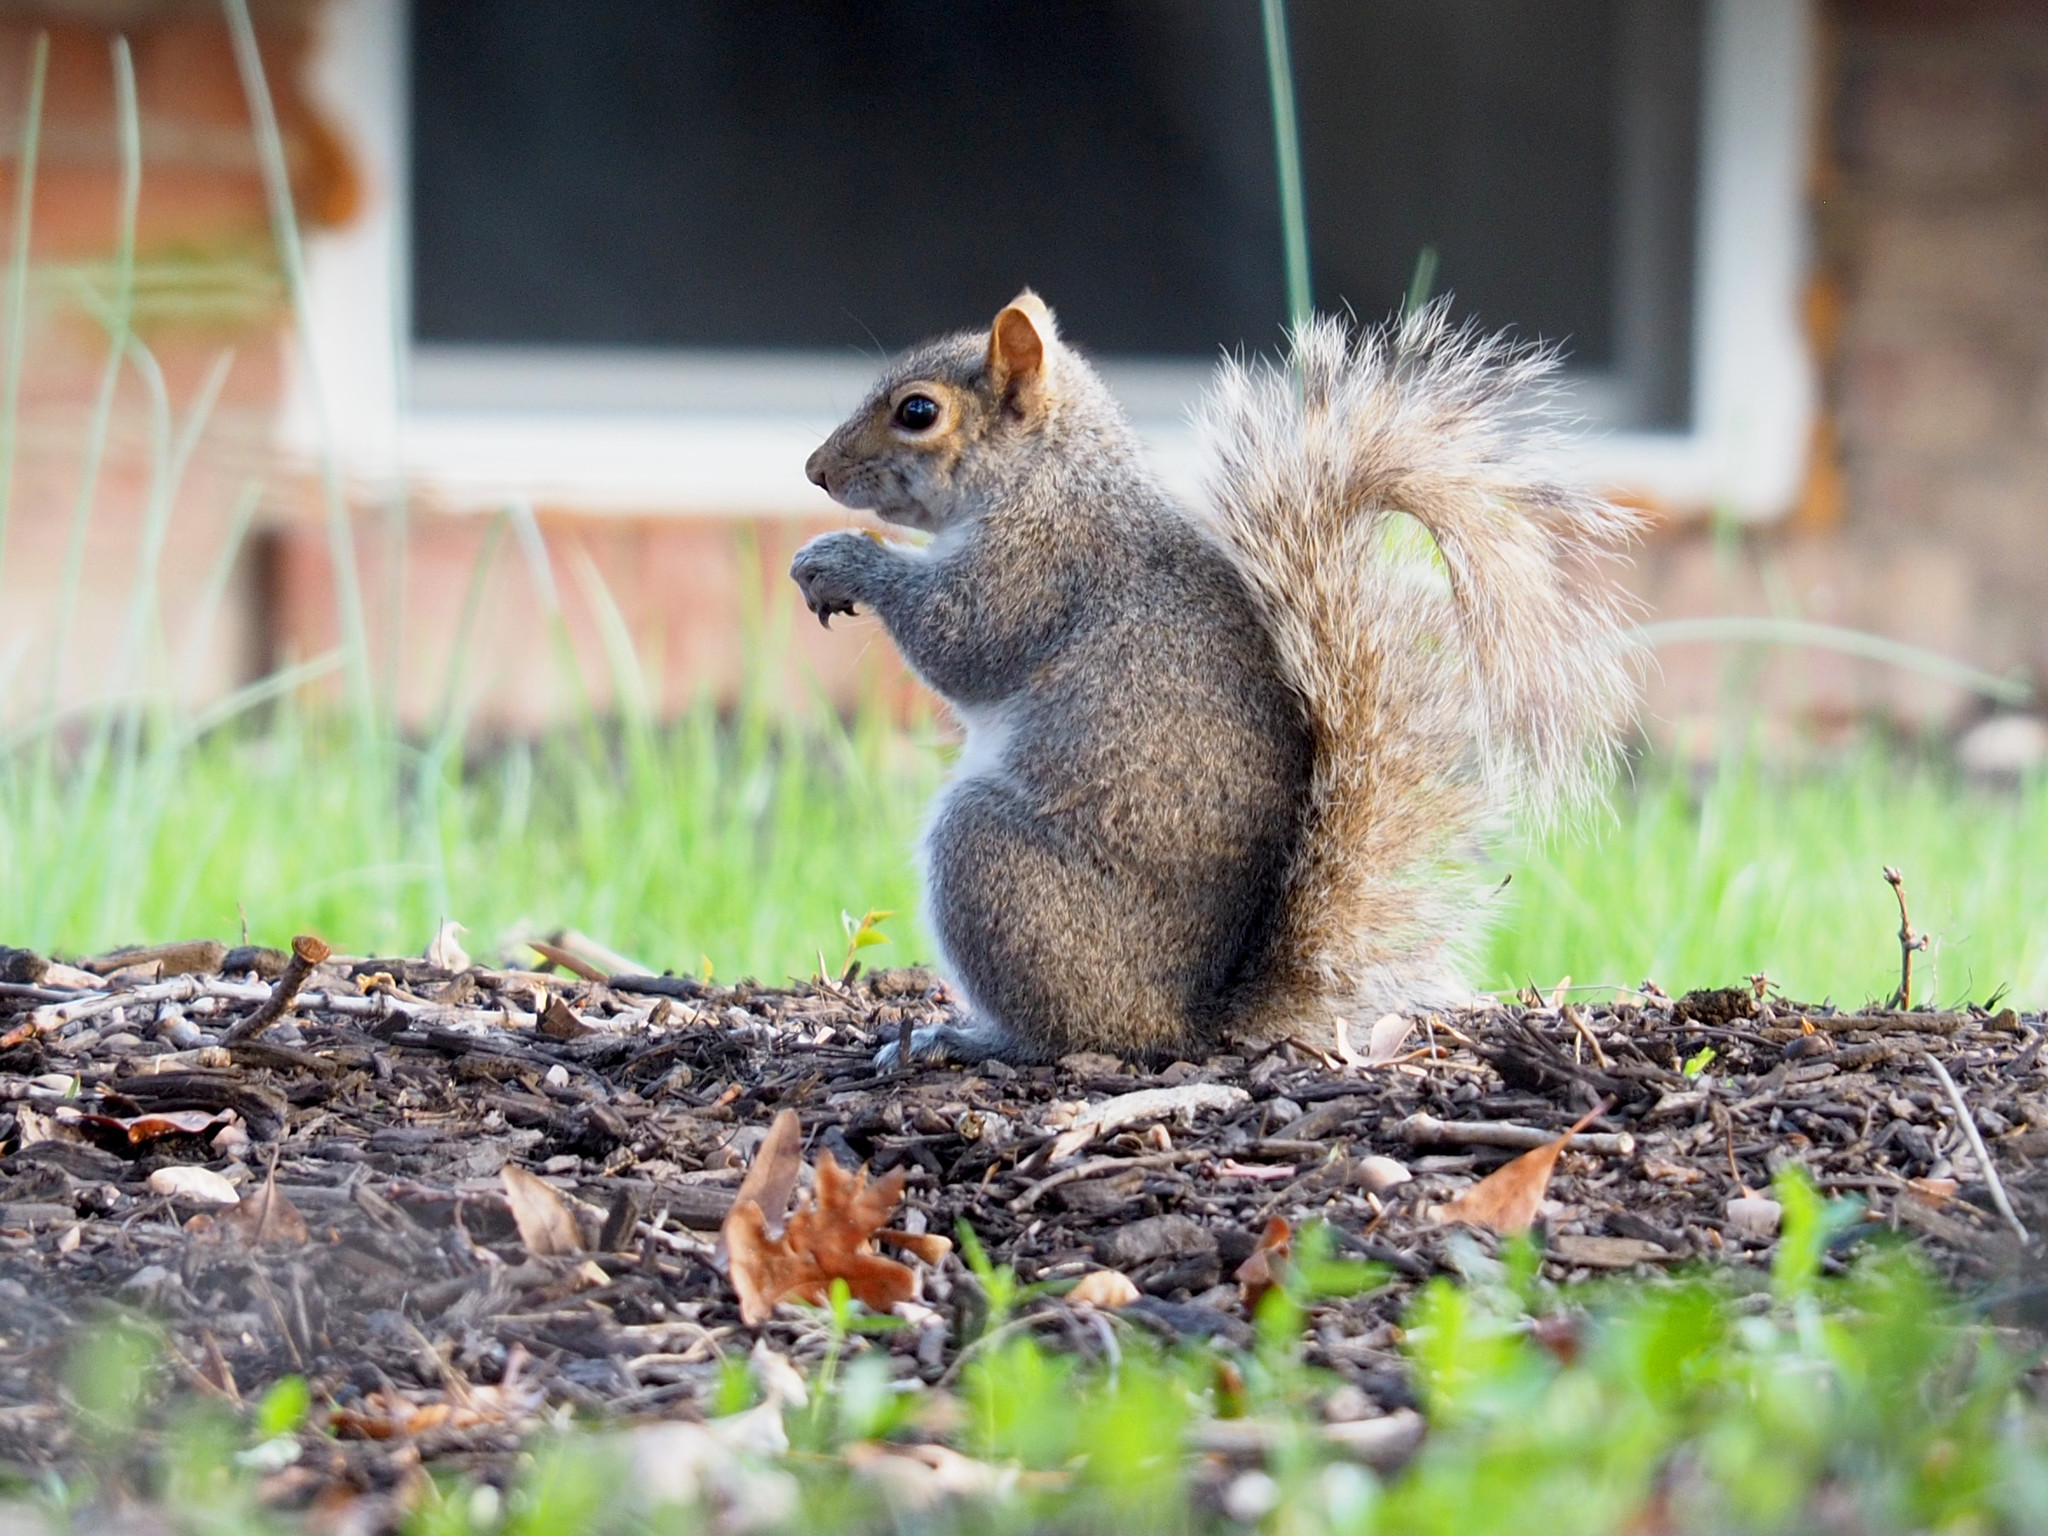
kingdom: Animalia
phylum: Chordata
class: Mammalia
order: Rodentia
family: Sciuridae
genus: Sciurus
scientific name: Sciurus carolinensis
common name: Eastern gray squirrel
